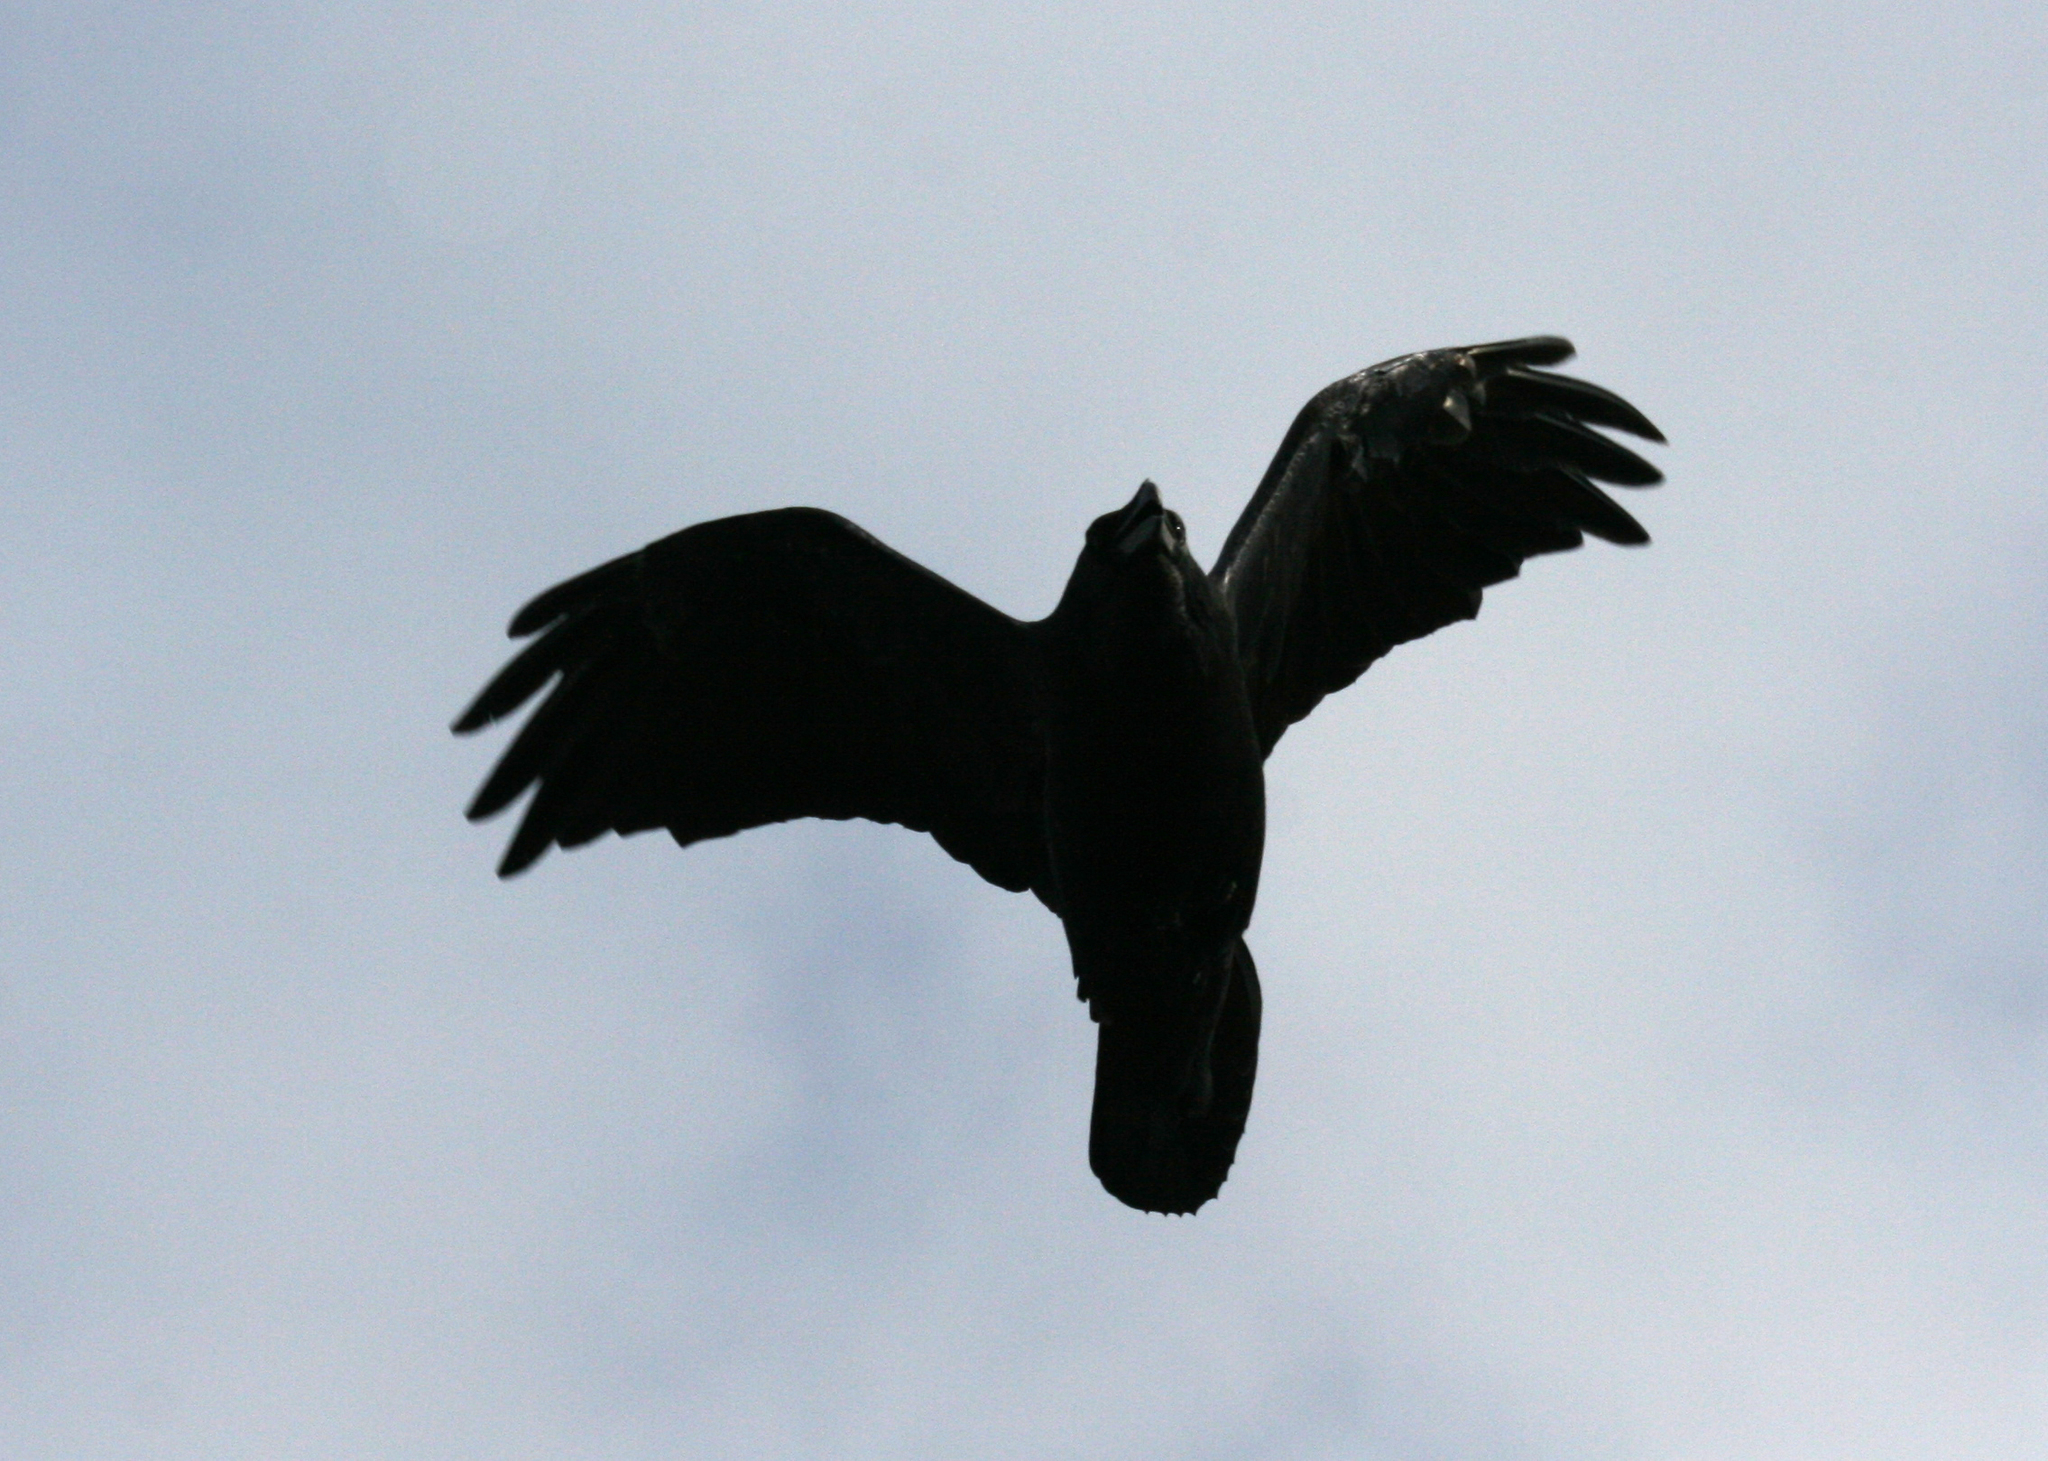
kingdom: Animalia
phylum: Chordata
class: Aves
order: Passeriformes
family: Corvidae
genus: Corvus
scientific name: Corvus corax
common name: Common raven
